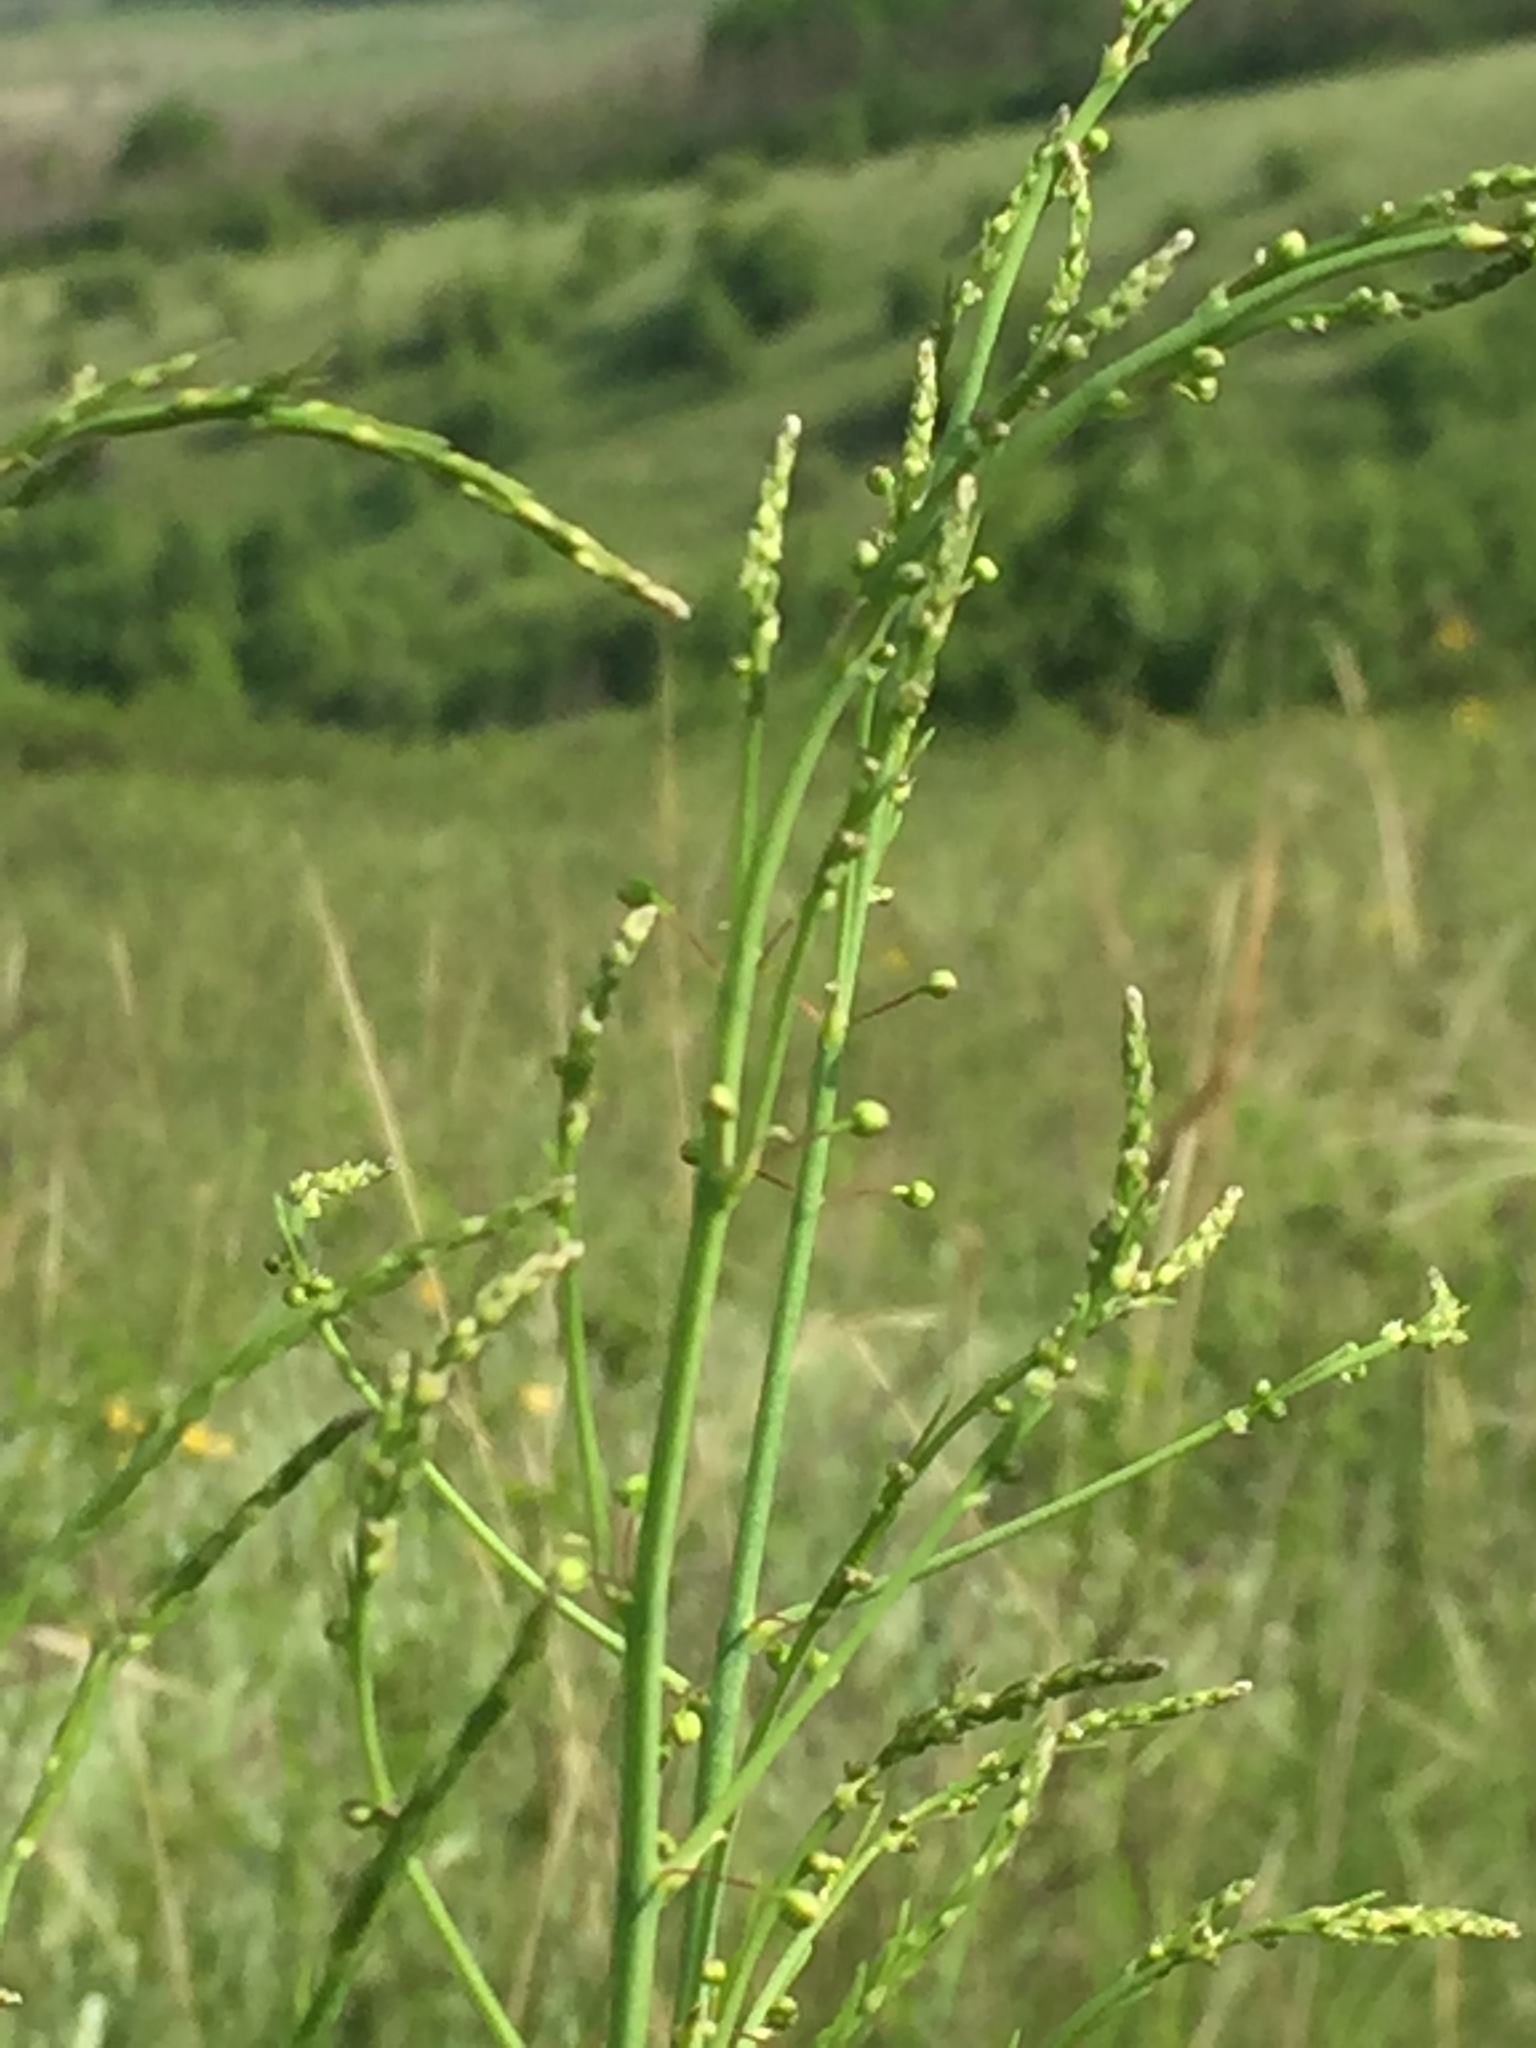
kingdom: Plantae
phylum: Tracheophyta
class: Liliopsida
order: Asparagales
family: Asparagaceae
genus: Asparagus
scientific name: Asparagus officinalis
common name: Garden asparagus
